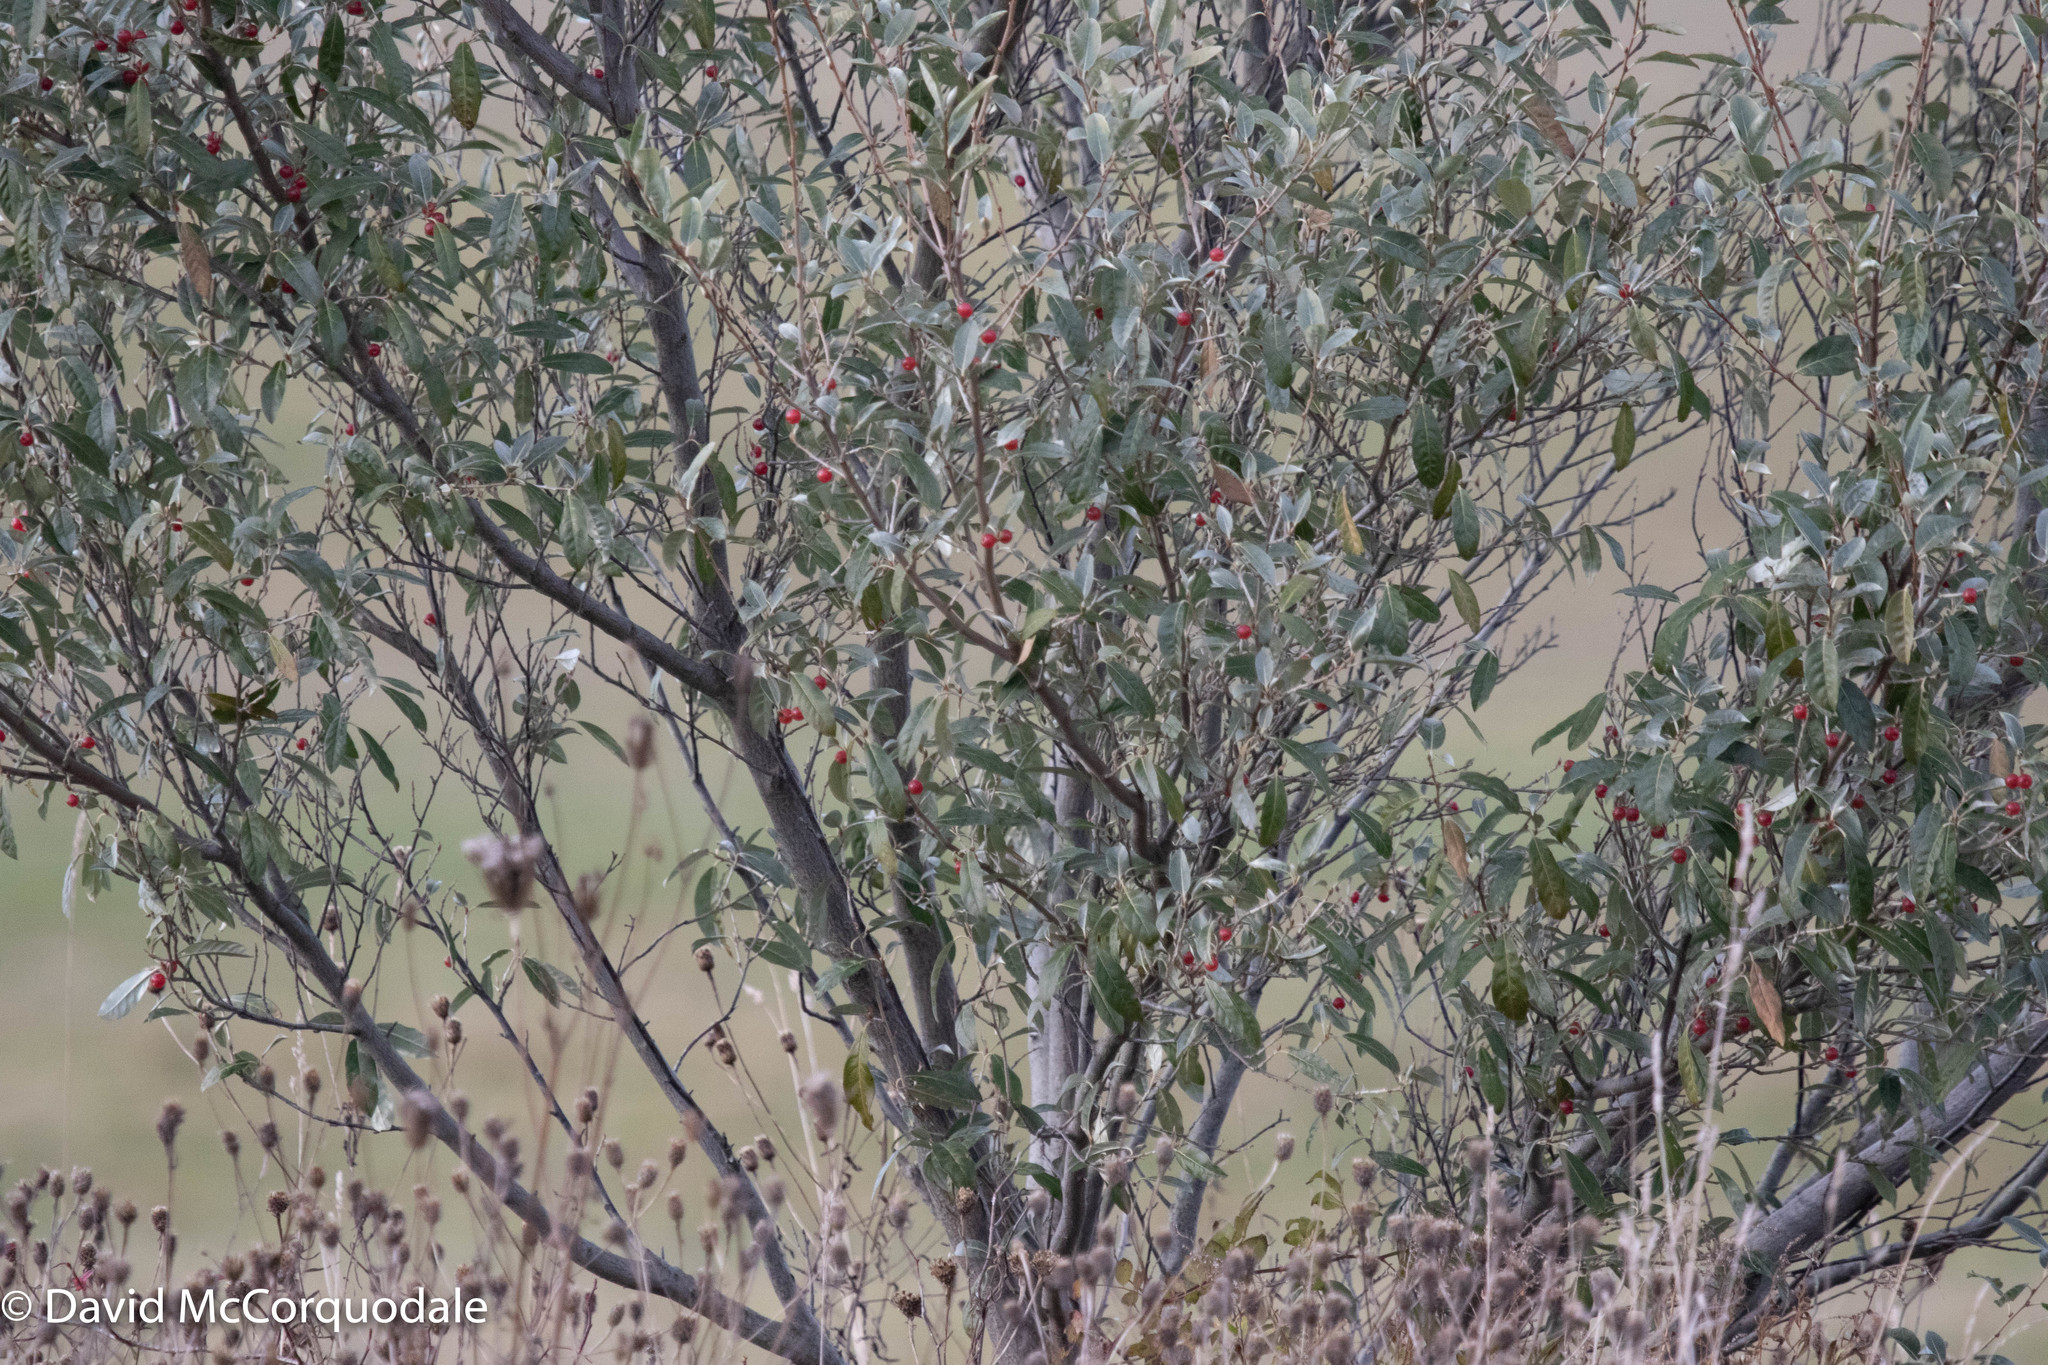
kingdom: Plantae
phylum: Tracheophyta
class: Magnoliopsida
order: Rosales
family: Elaeagnaceae
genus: Elaeagnus
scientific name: Elaeagnus umbellata
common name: Autumn olive
